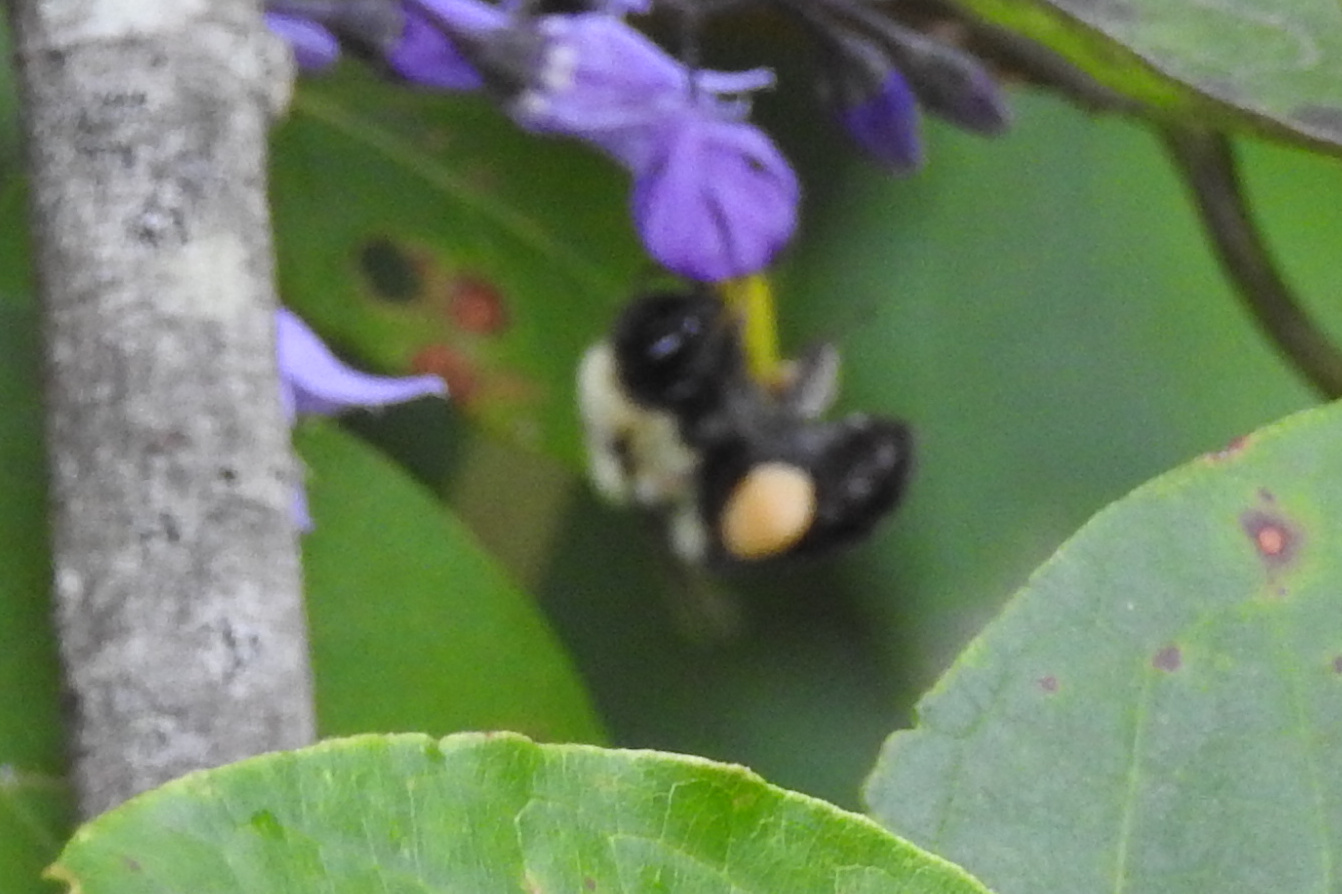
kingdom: Animalia
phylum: Arthropoda
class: Insecta
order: Hymenoptera
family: Apidae
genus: Bombus
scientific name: Bombus
